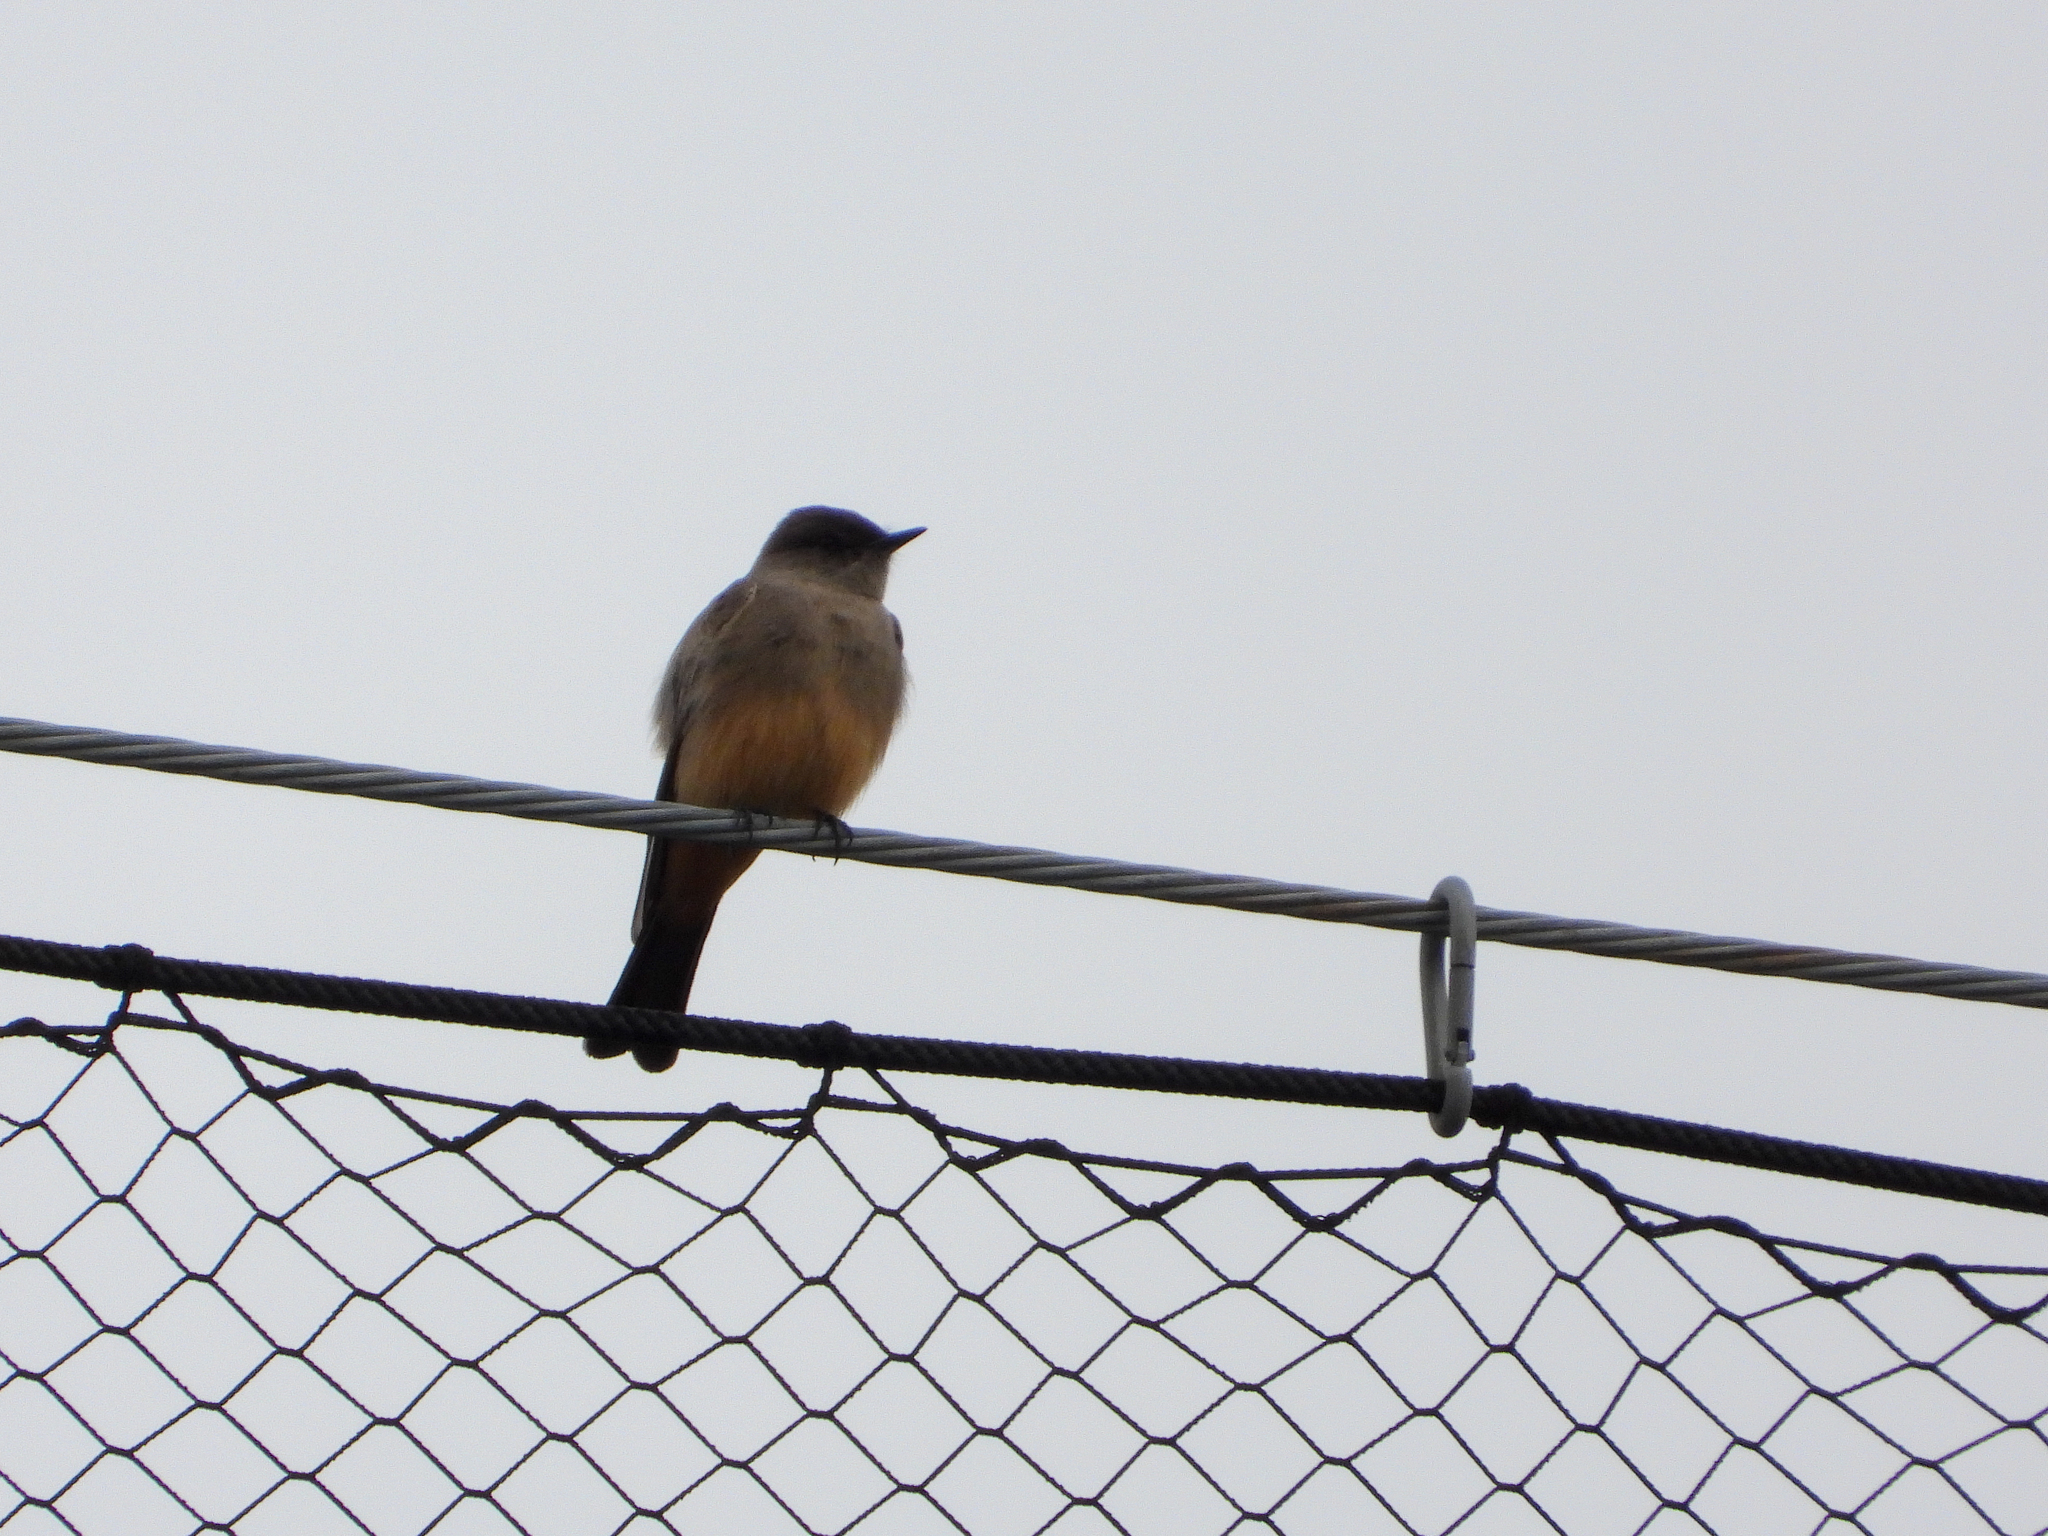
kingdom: Animalia
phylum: Chordata
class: Aves
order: Passeriformes
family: Tyrannidae
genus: Sayornis
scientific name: Sayornis saya
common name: Say's phoebe
